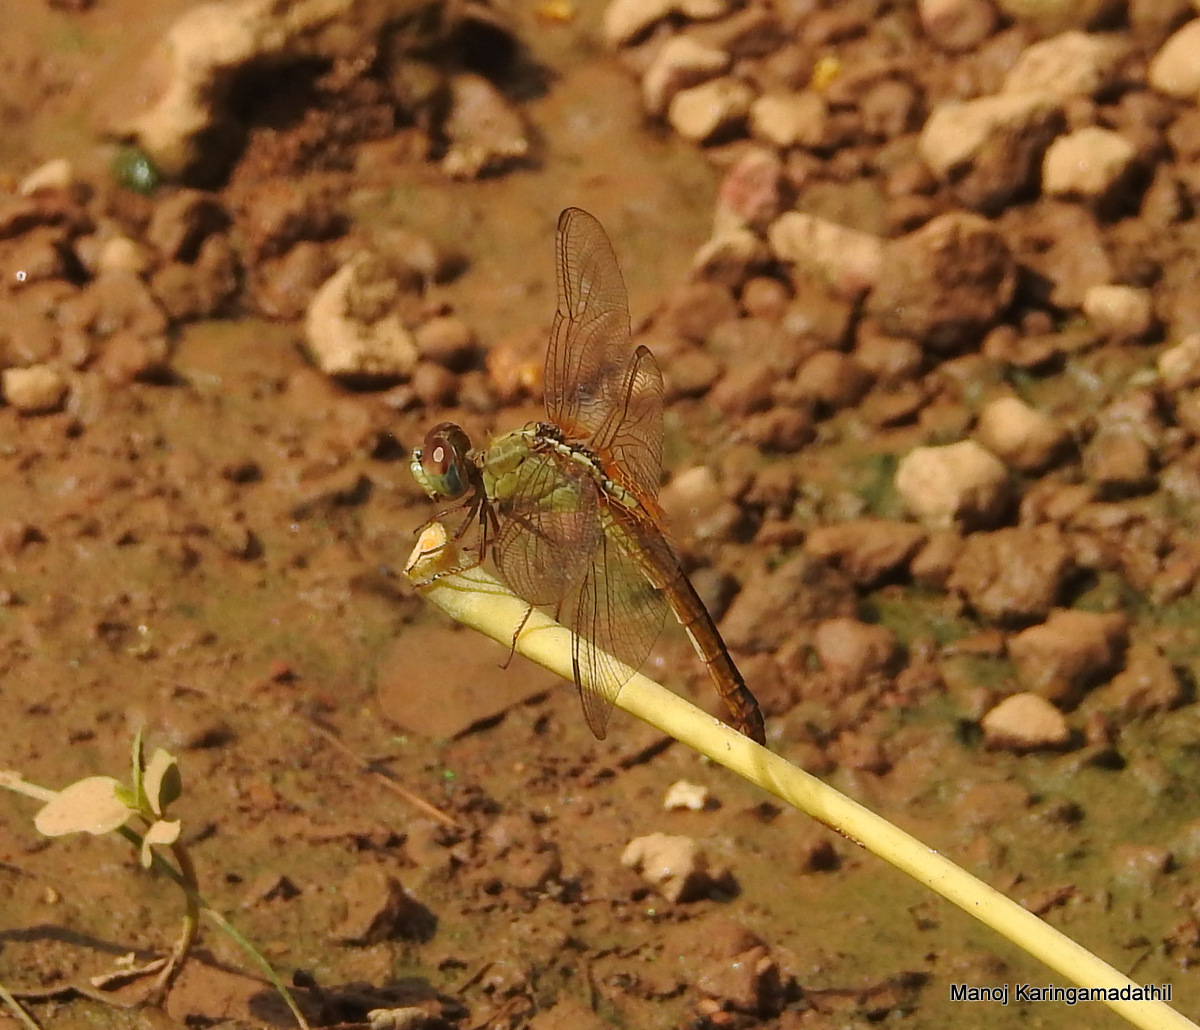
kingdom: Animalia
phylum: Arthropoda
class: Insecta
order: Odonata
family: Libellulidae
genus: Crocothemis
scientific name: Crocothemis servilia
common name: Scarlet skimmer
